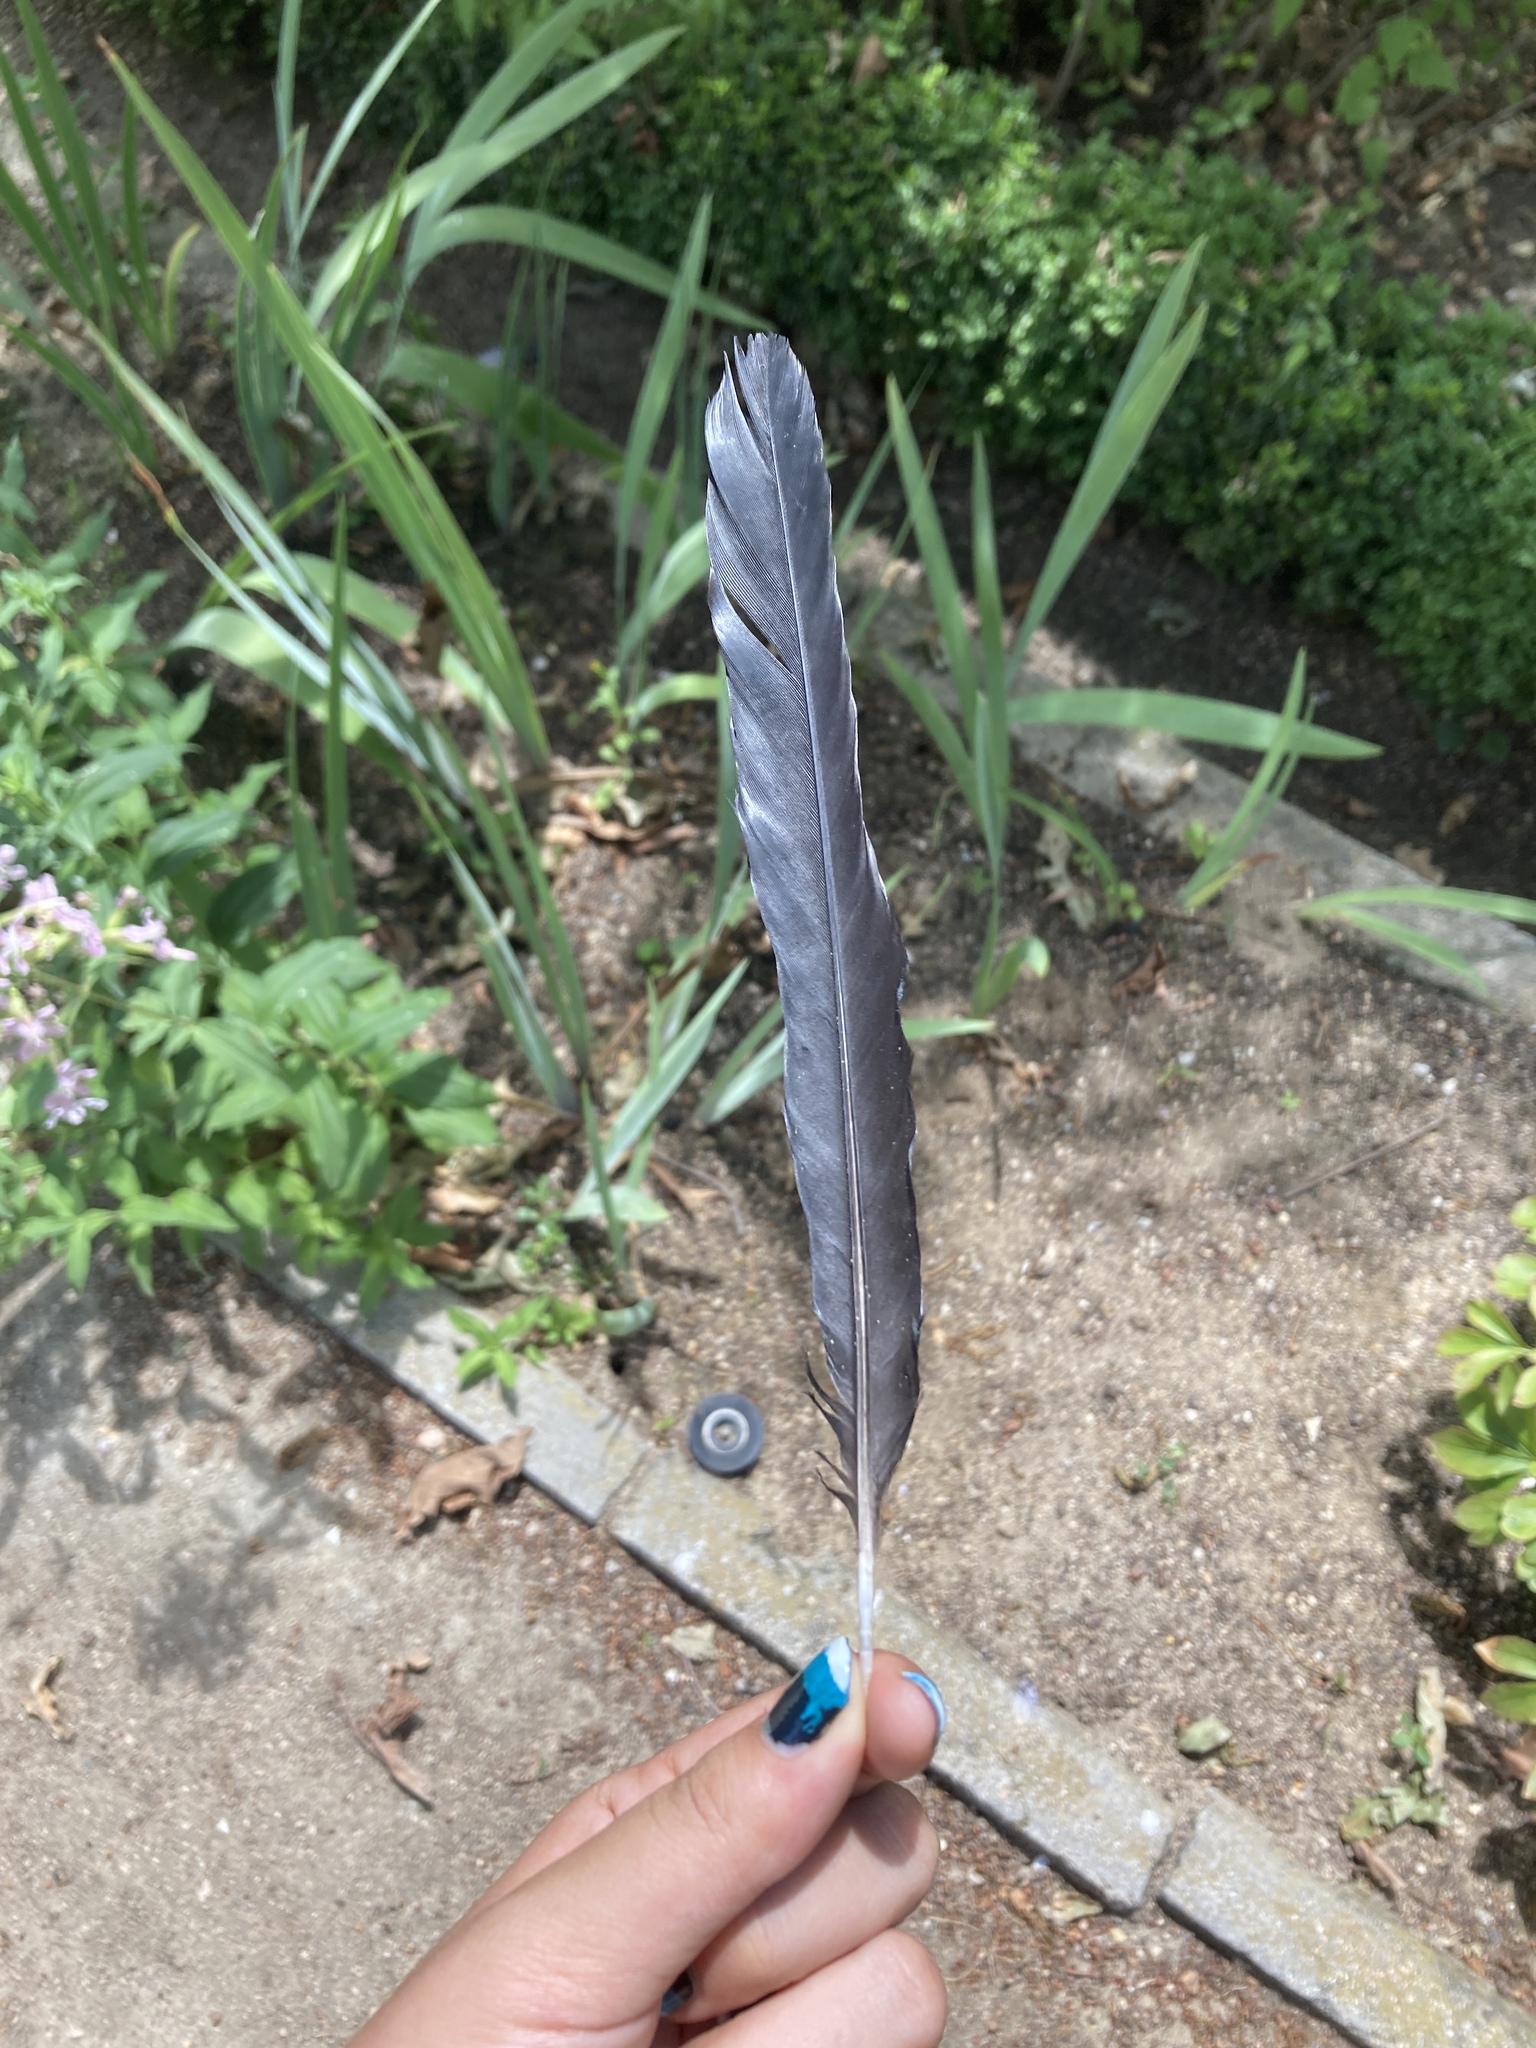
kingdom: Animalia
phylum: Chordata
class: Aves
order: Passeriformes
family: Corvidae
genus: Pica
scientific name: Pica pica
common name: Eurasian magpie
